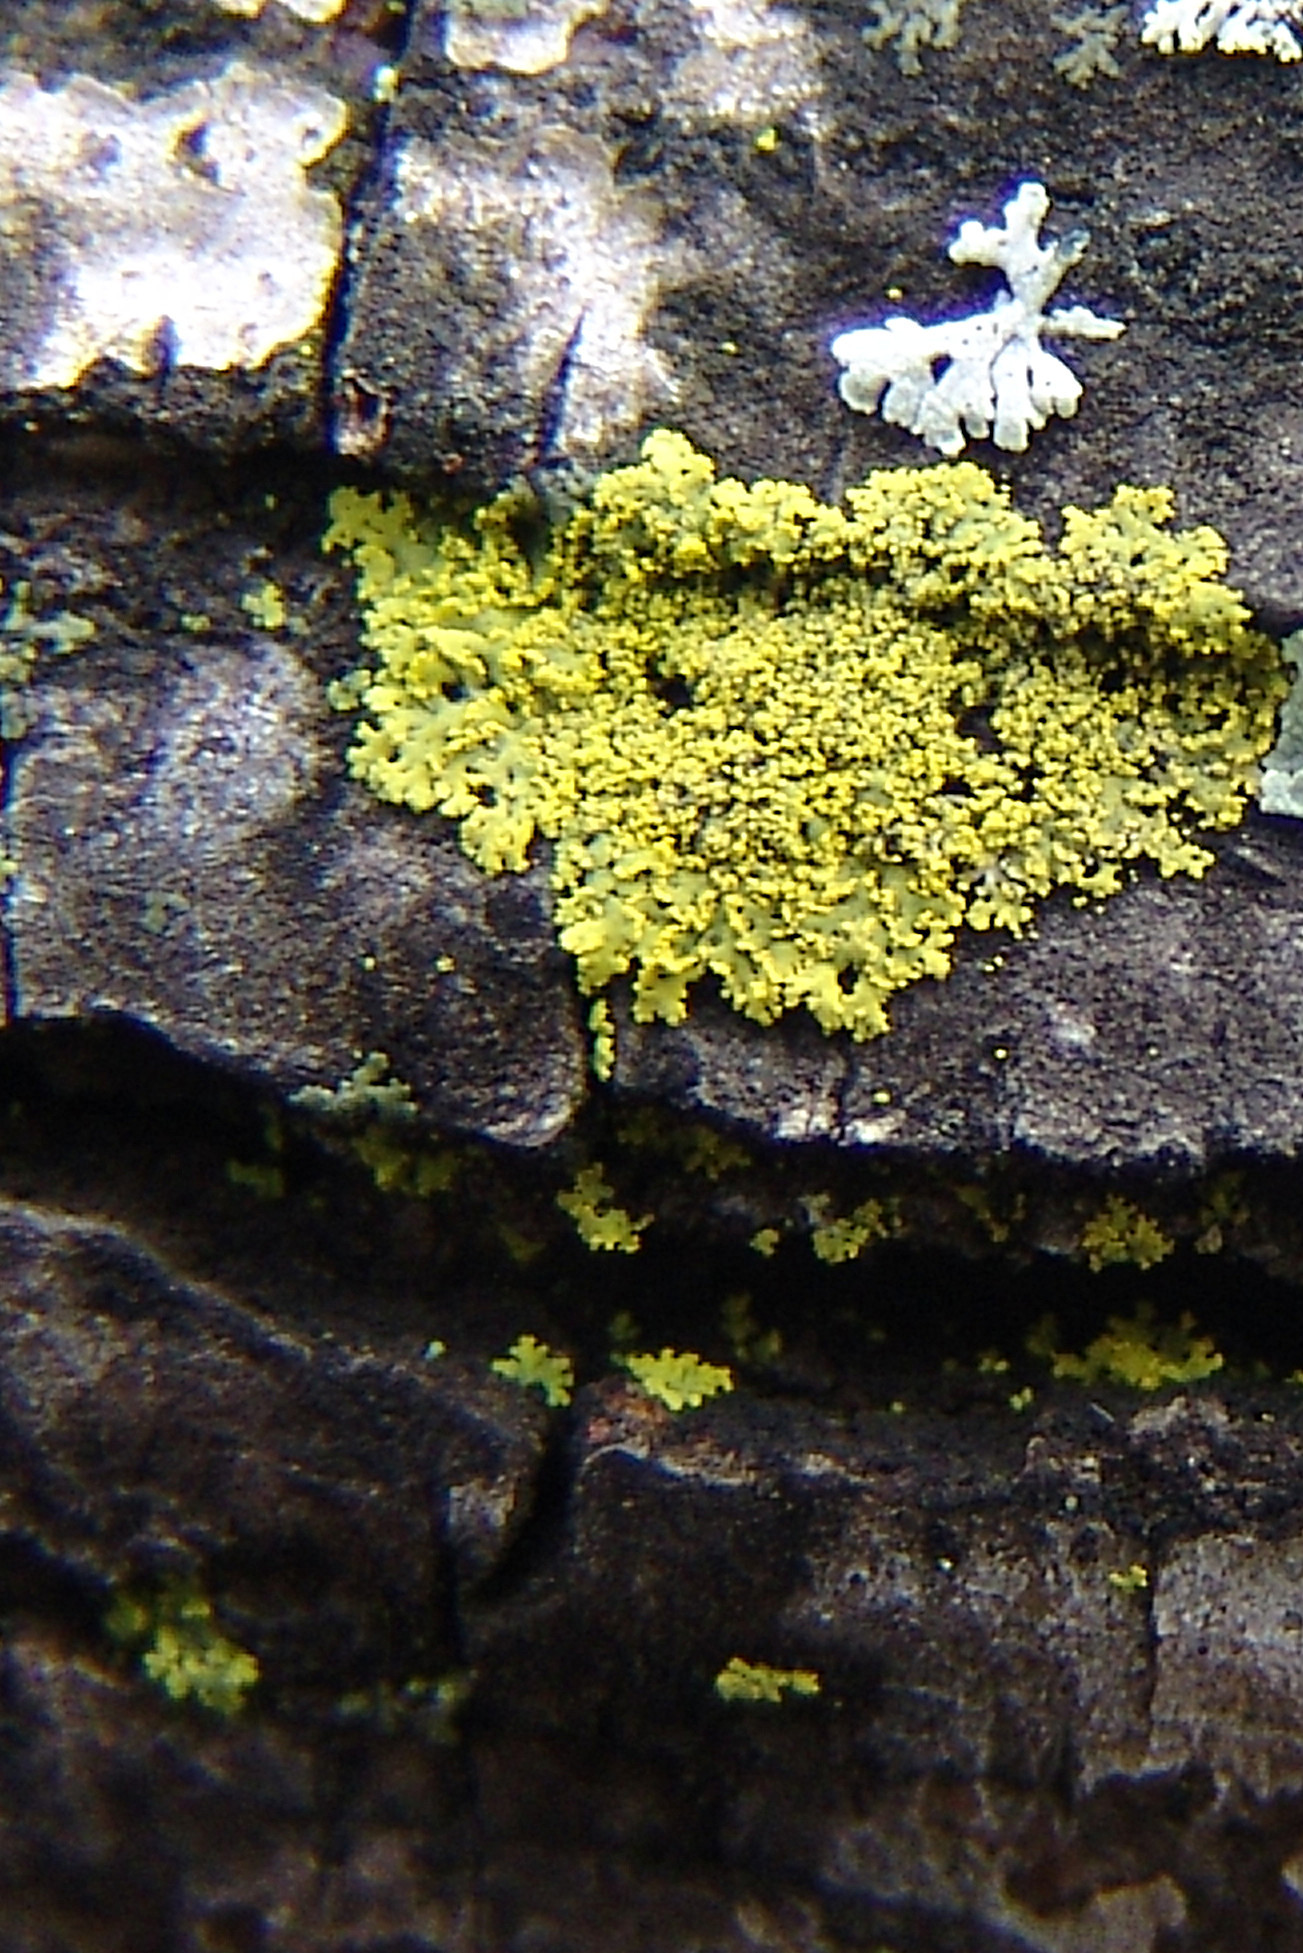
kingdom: Fungi
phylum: Ascomycota
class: Candelariomycetes
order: Candelariales
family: Candelariaceae
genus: Candelaria
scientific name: Candelaria concolor
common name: Candleflame lichen
